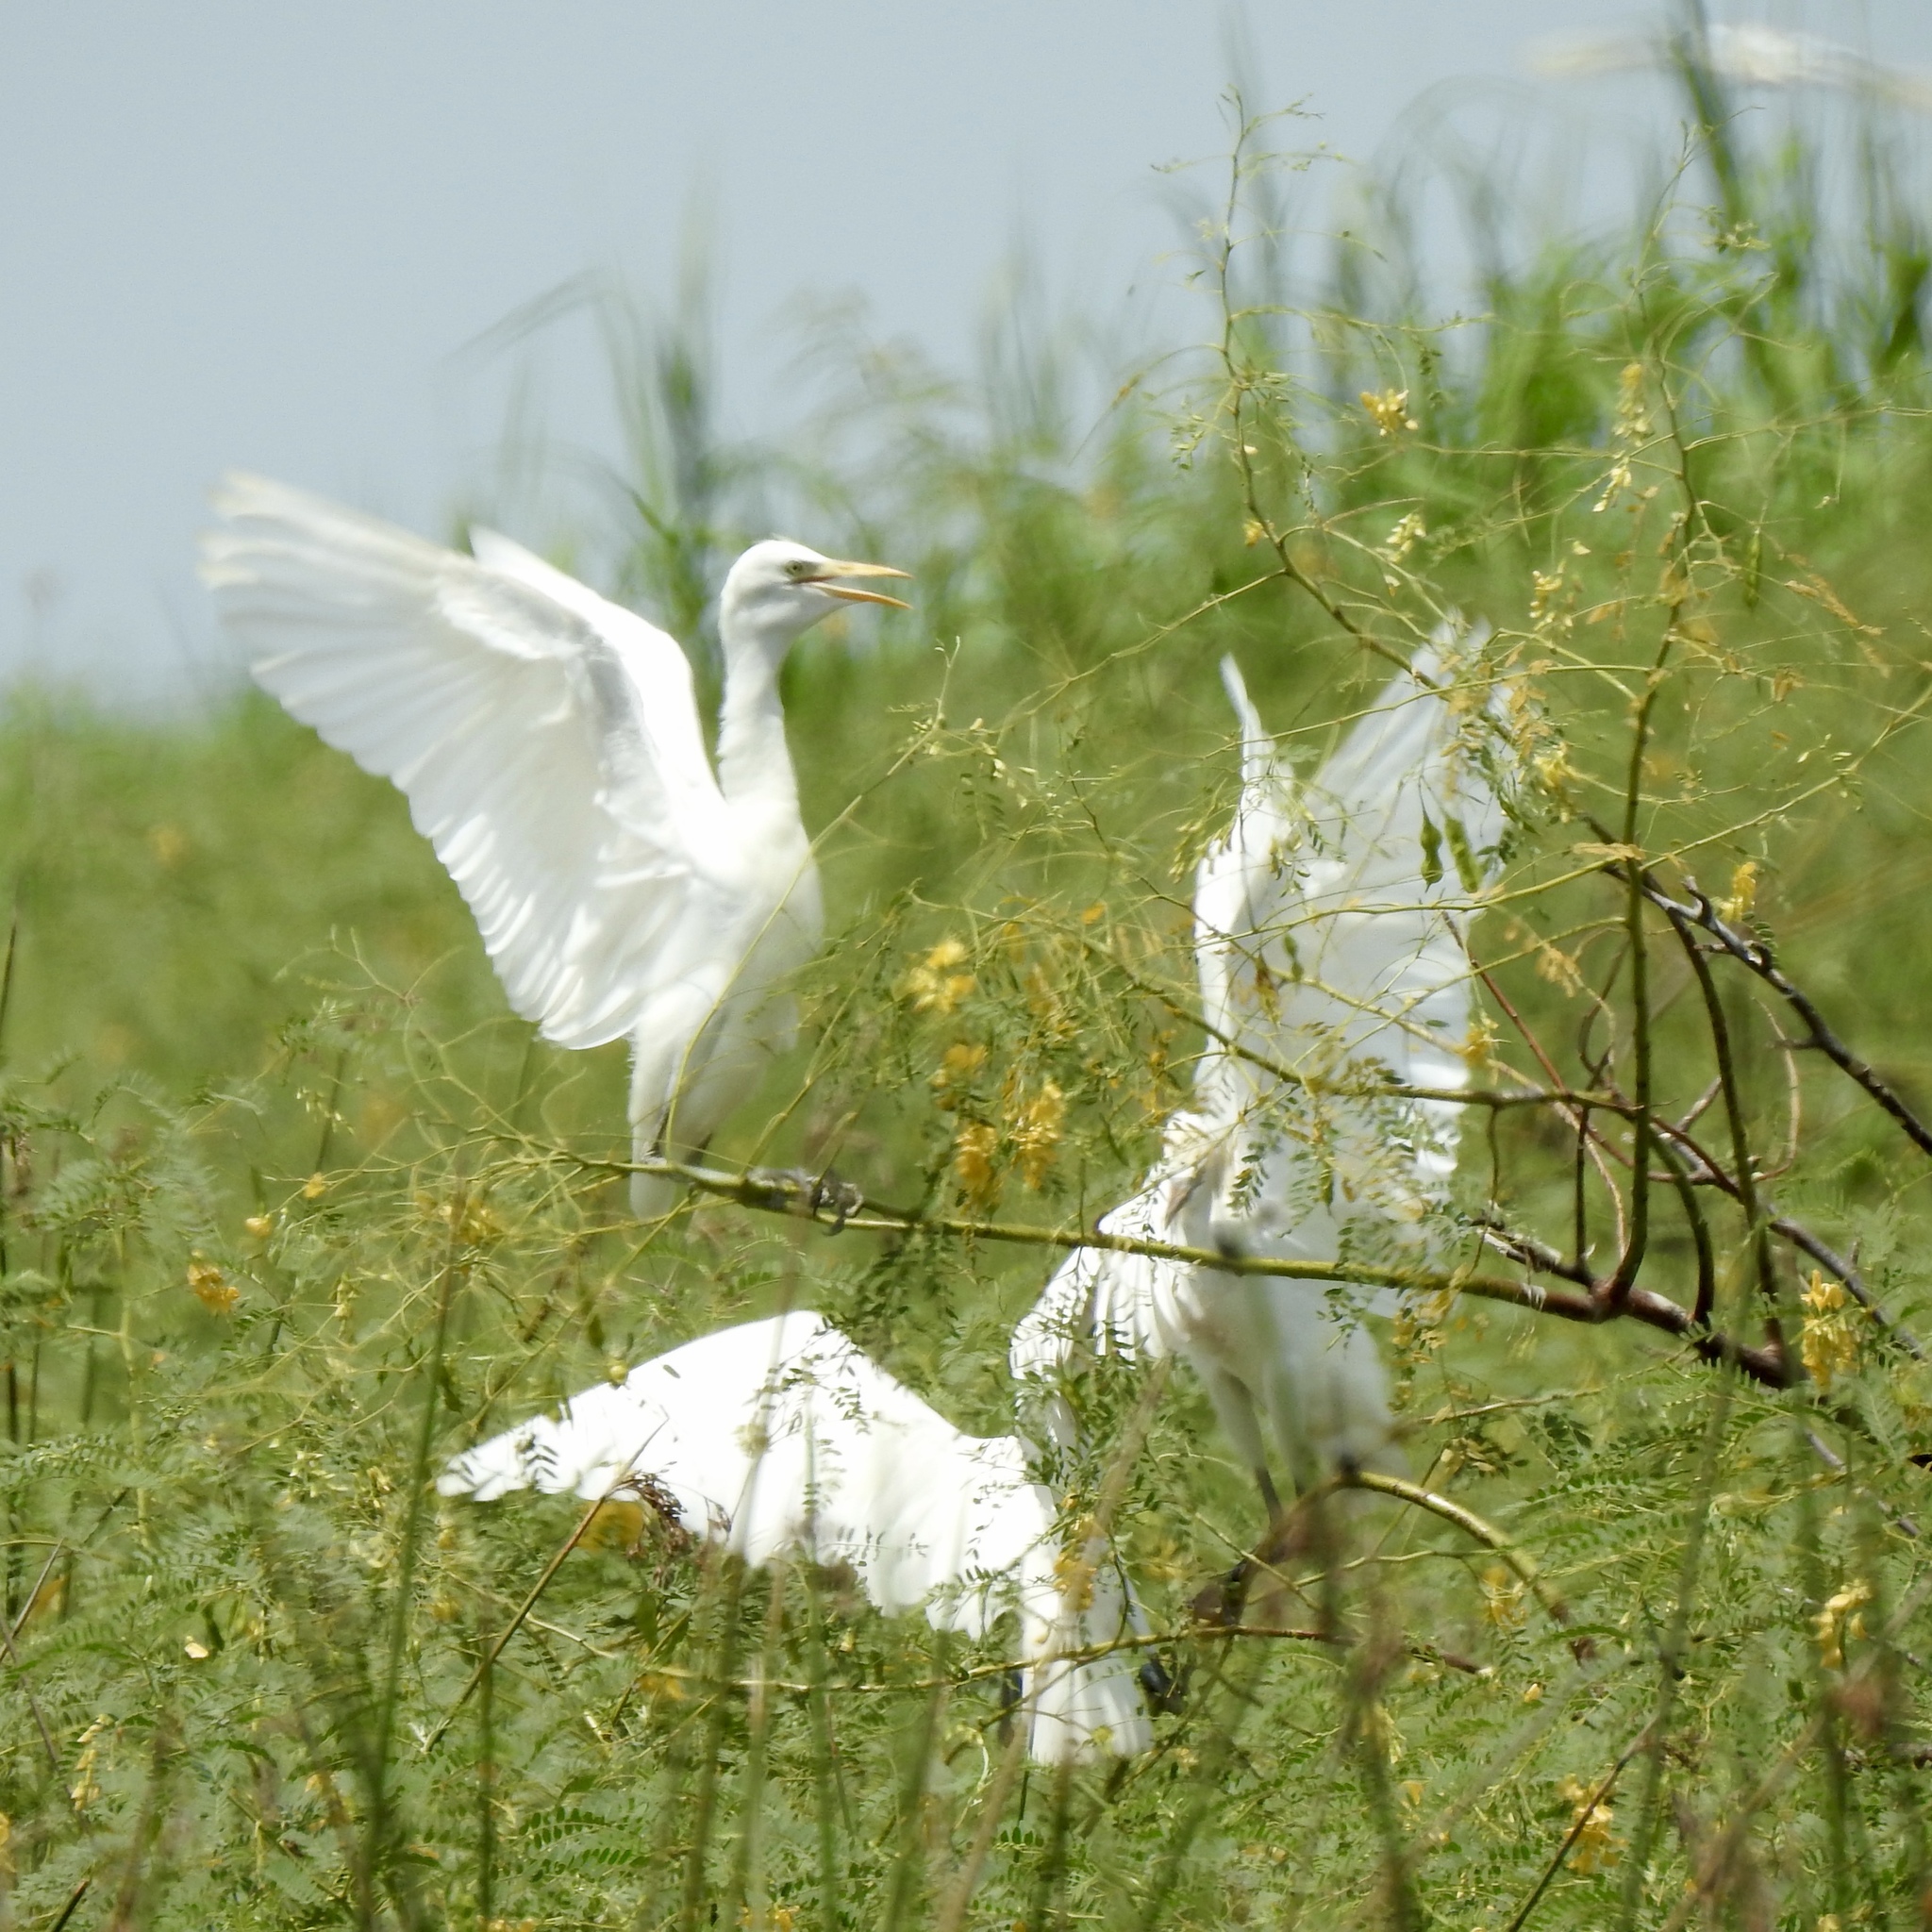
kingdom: Animalia
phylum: Chordata
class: Aves
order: Pelecaniformes
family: Ardeidae
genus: Bubulcus
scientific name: Bubulcus ibis
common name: Cattle egret
